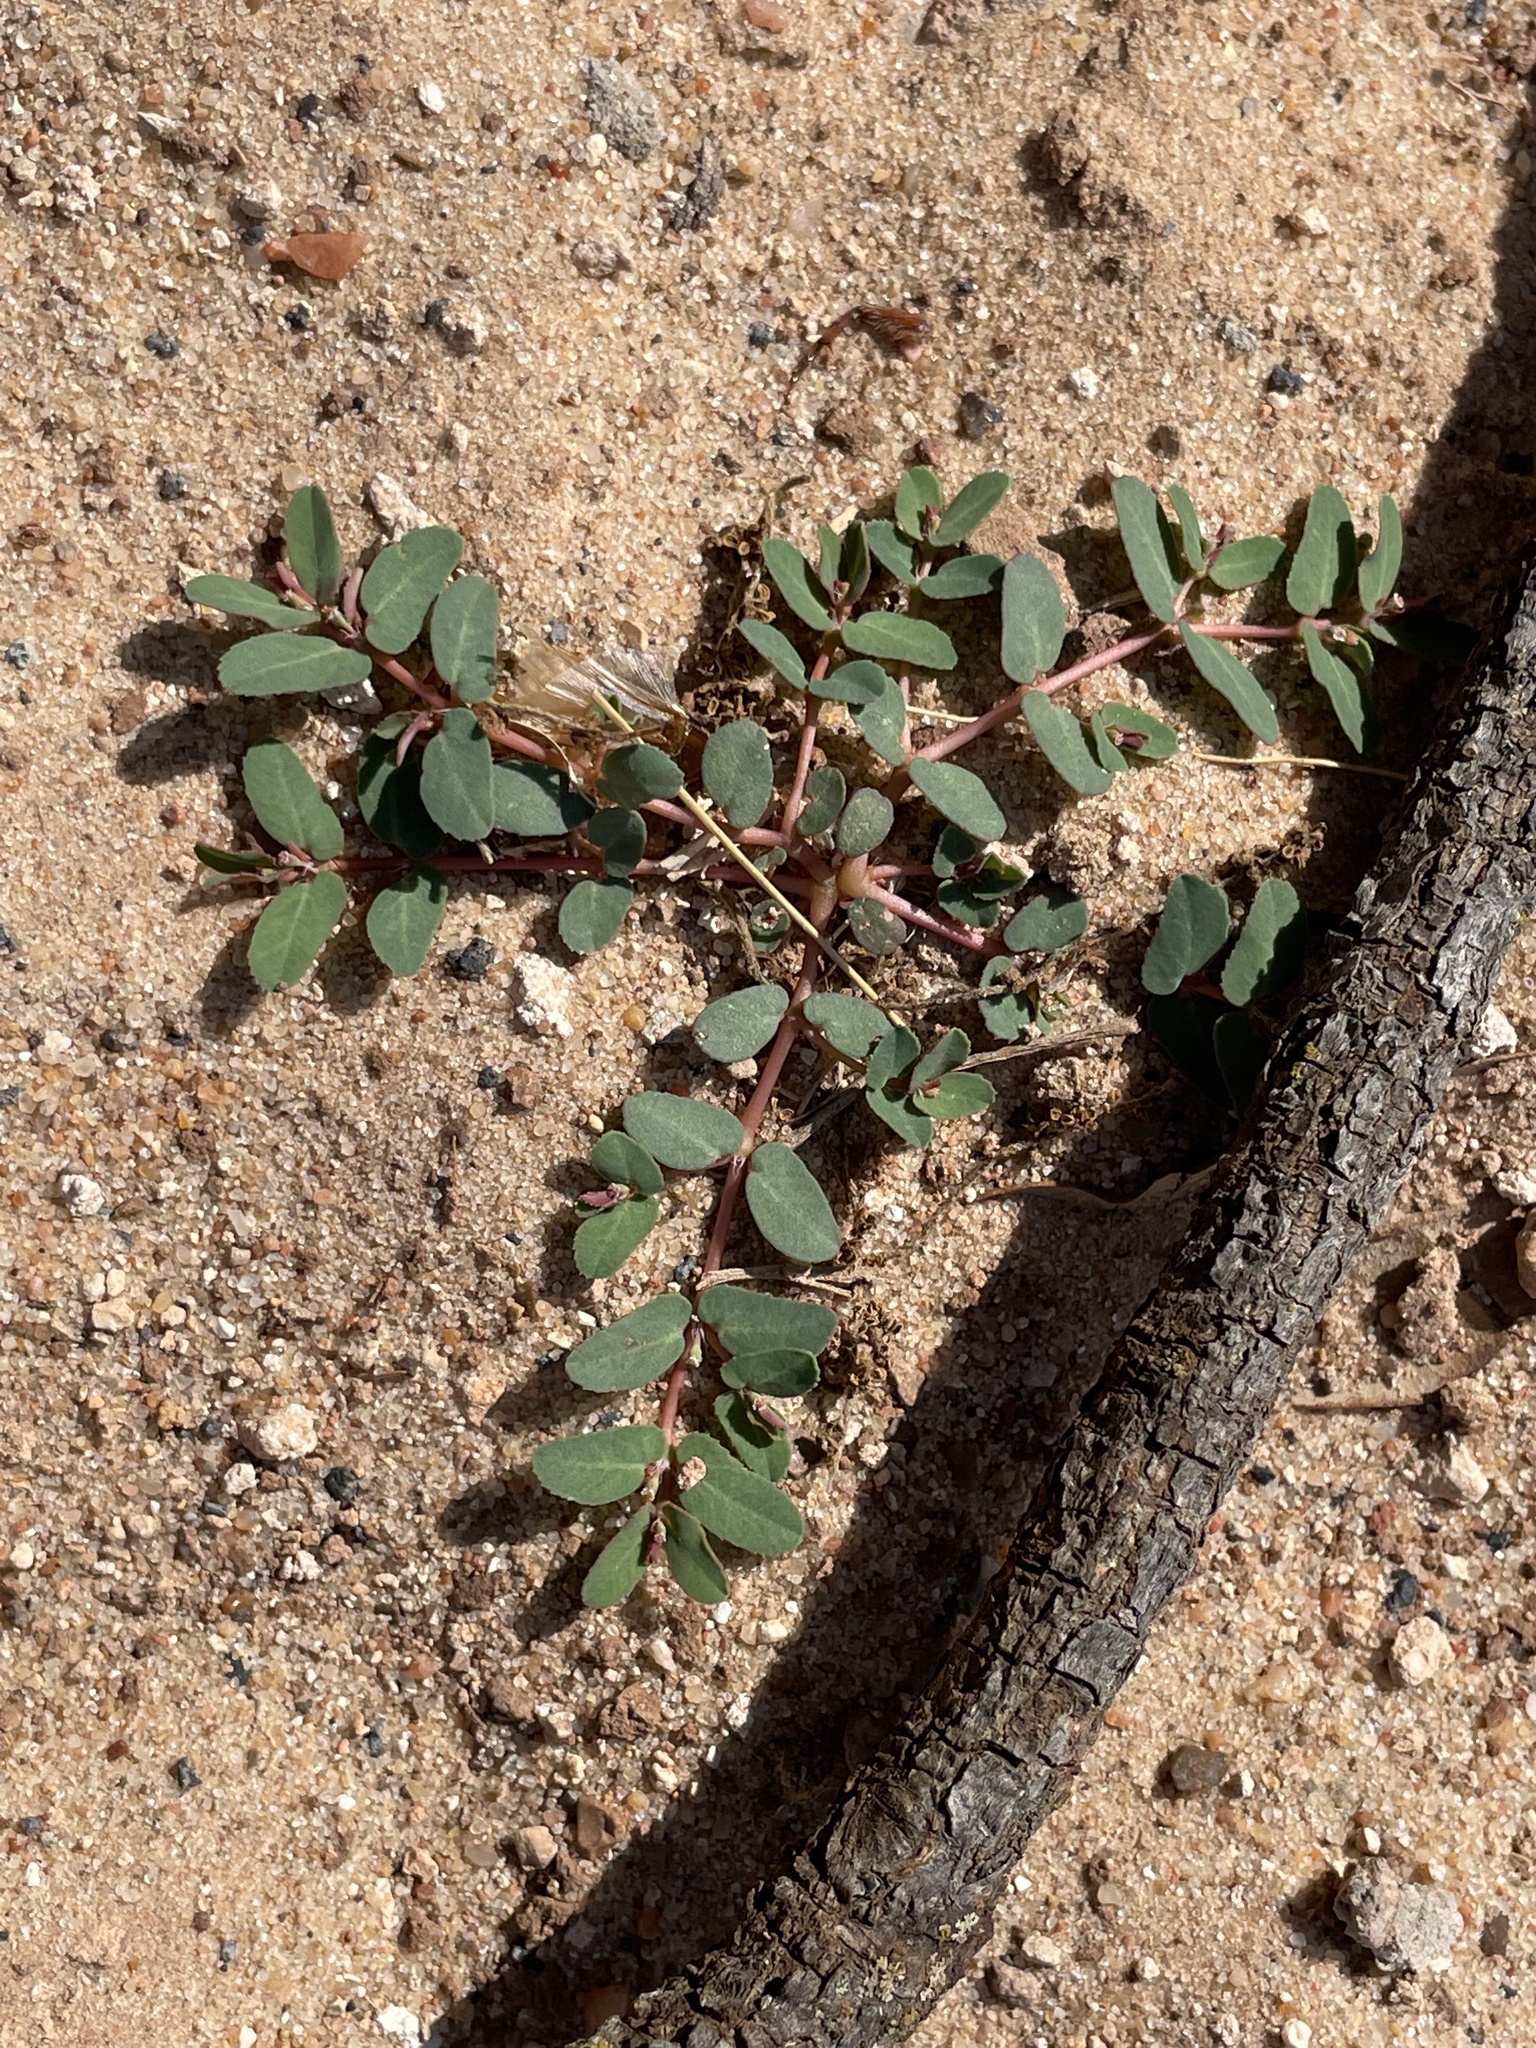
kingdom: Plantae
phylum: Tracheophyta
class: Magnoliopsida
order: Malpighiales
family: Euphorbiaceae
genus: Euphorbia
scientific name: Euphorbia glyptosperma
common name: Corrugate-seeded spurge
